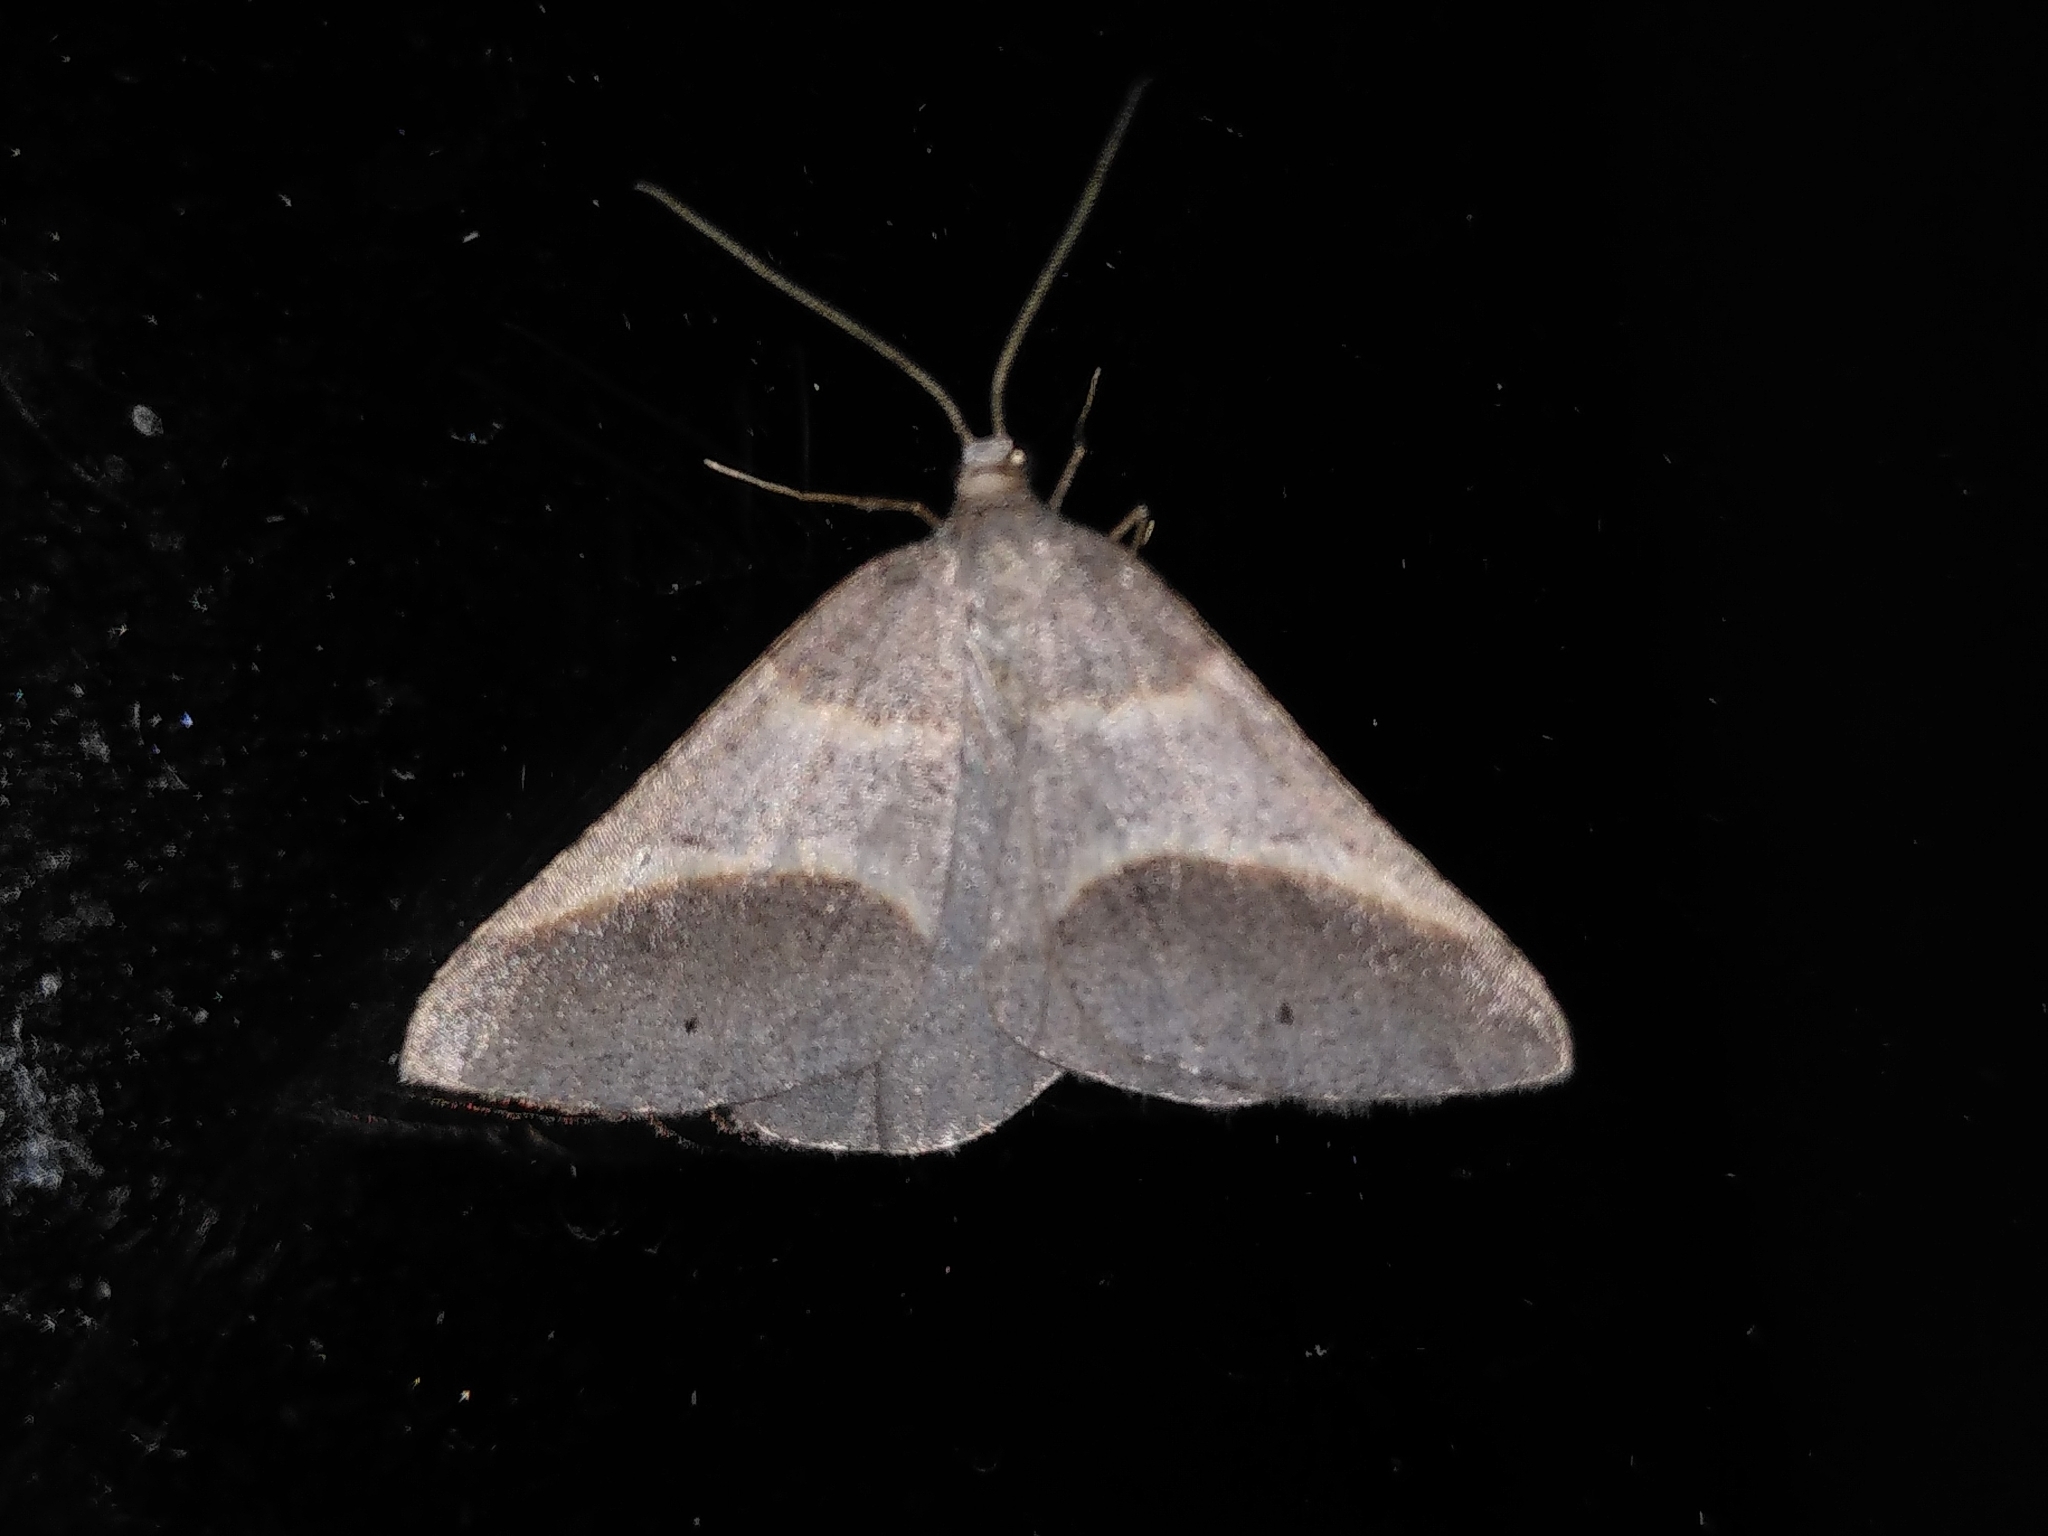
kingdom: Animalia
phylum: Arthropoda
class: Insecta
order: Lepidoptera
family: Pterophoridae
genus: Pterophorus
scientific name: Pterophorus Petrophora convergata
